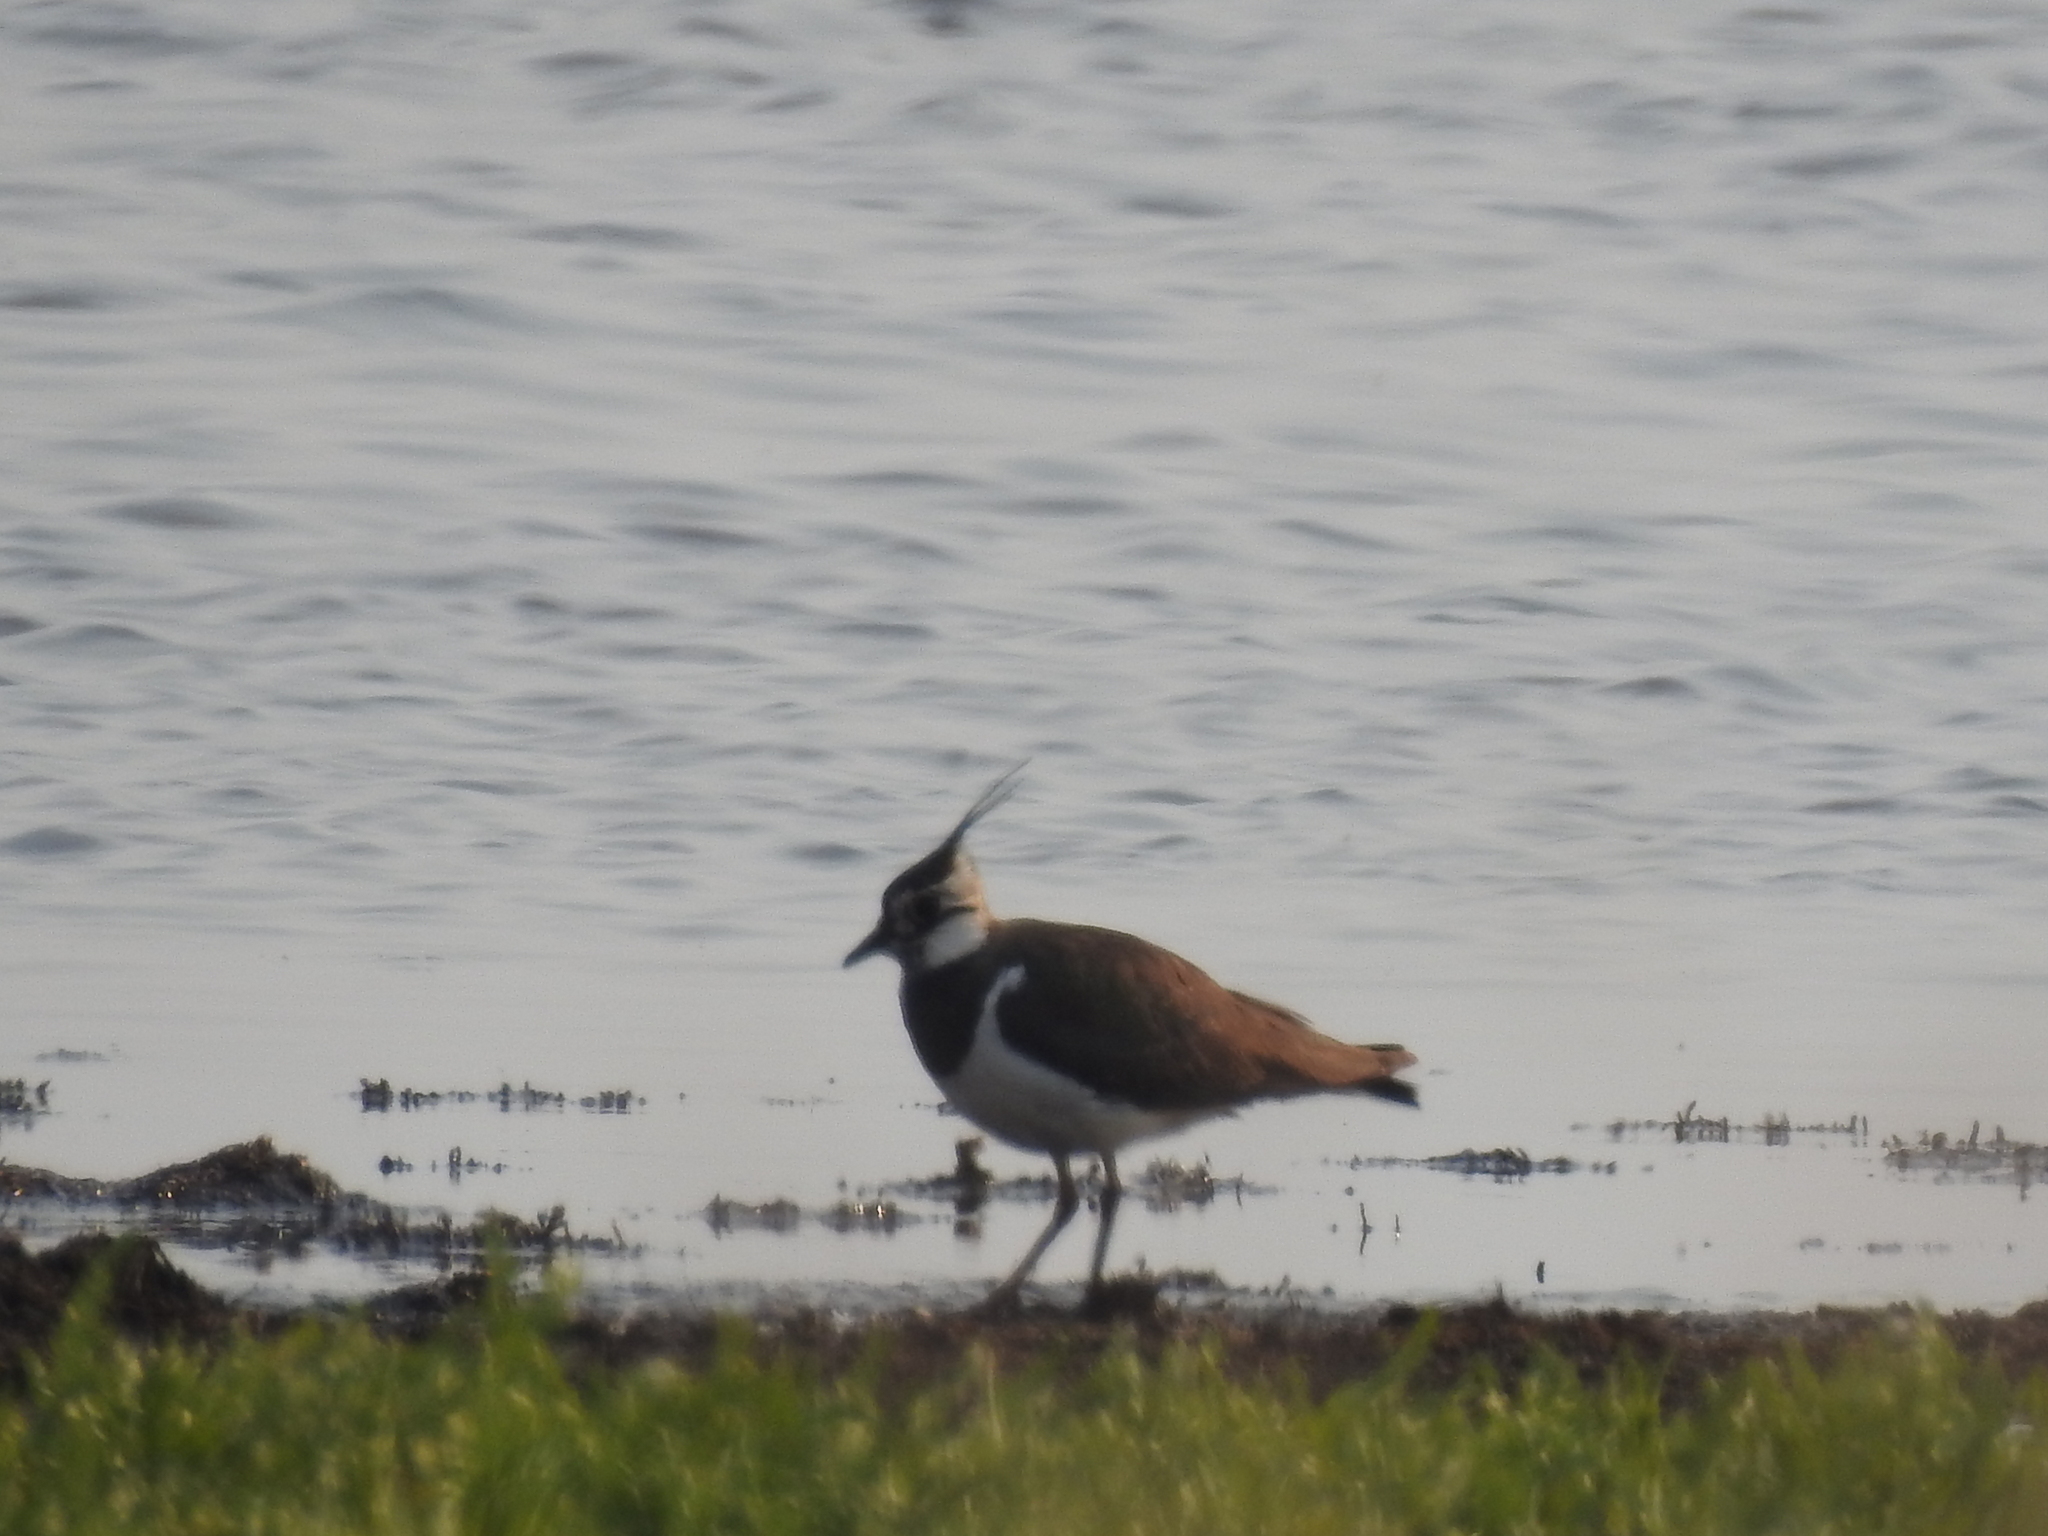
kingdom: Animalia
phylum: Chordata
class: Aves
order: Charadriiformes
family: Charadriidae
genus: Vanellus
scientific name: Vanellus vanellus
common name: Northern lapwing
